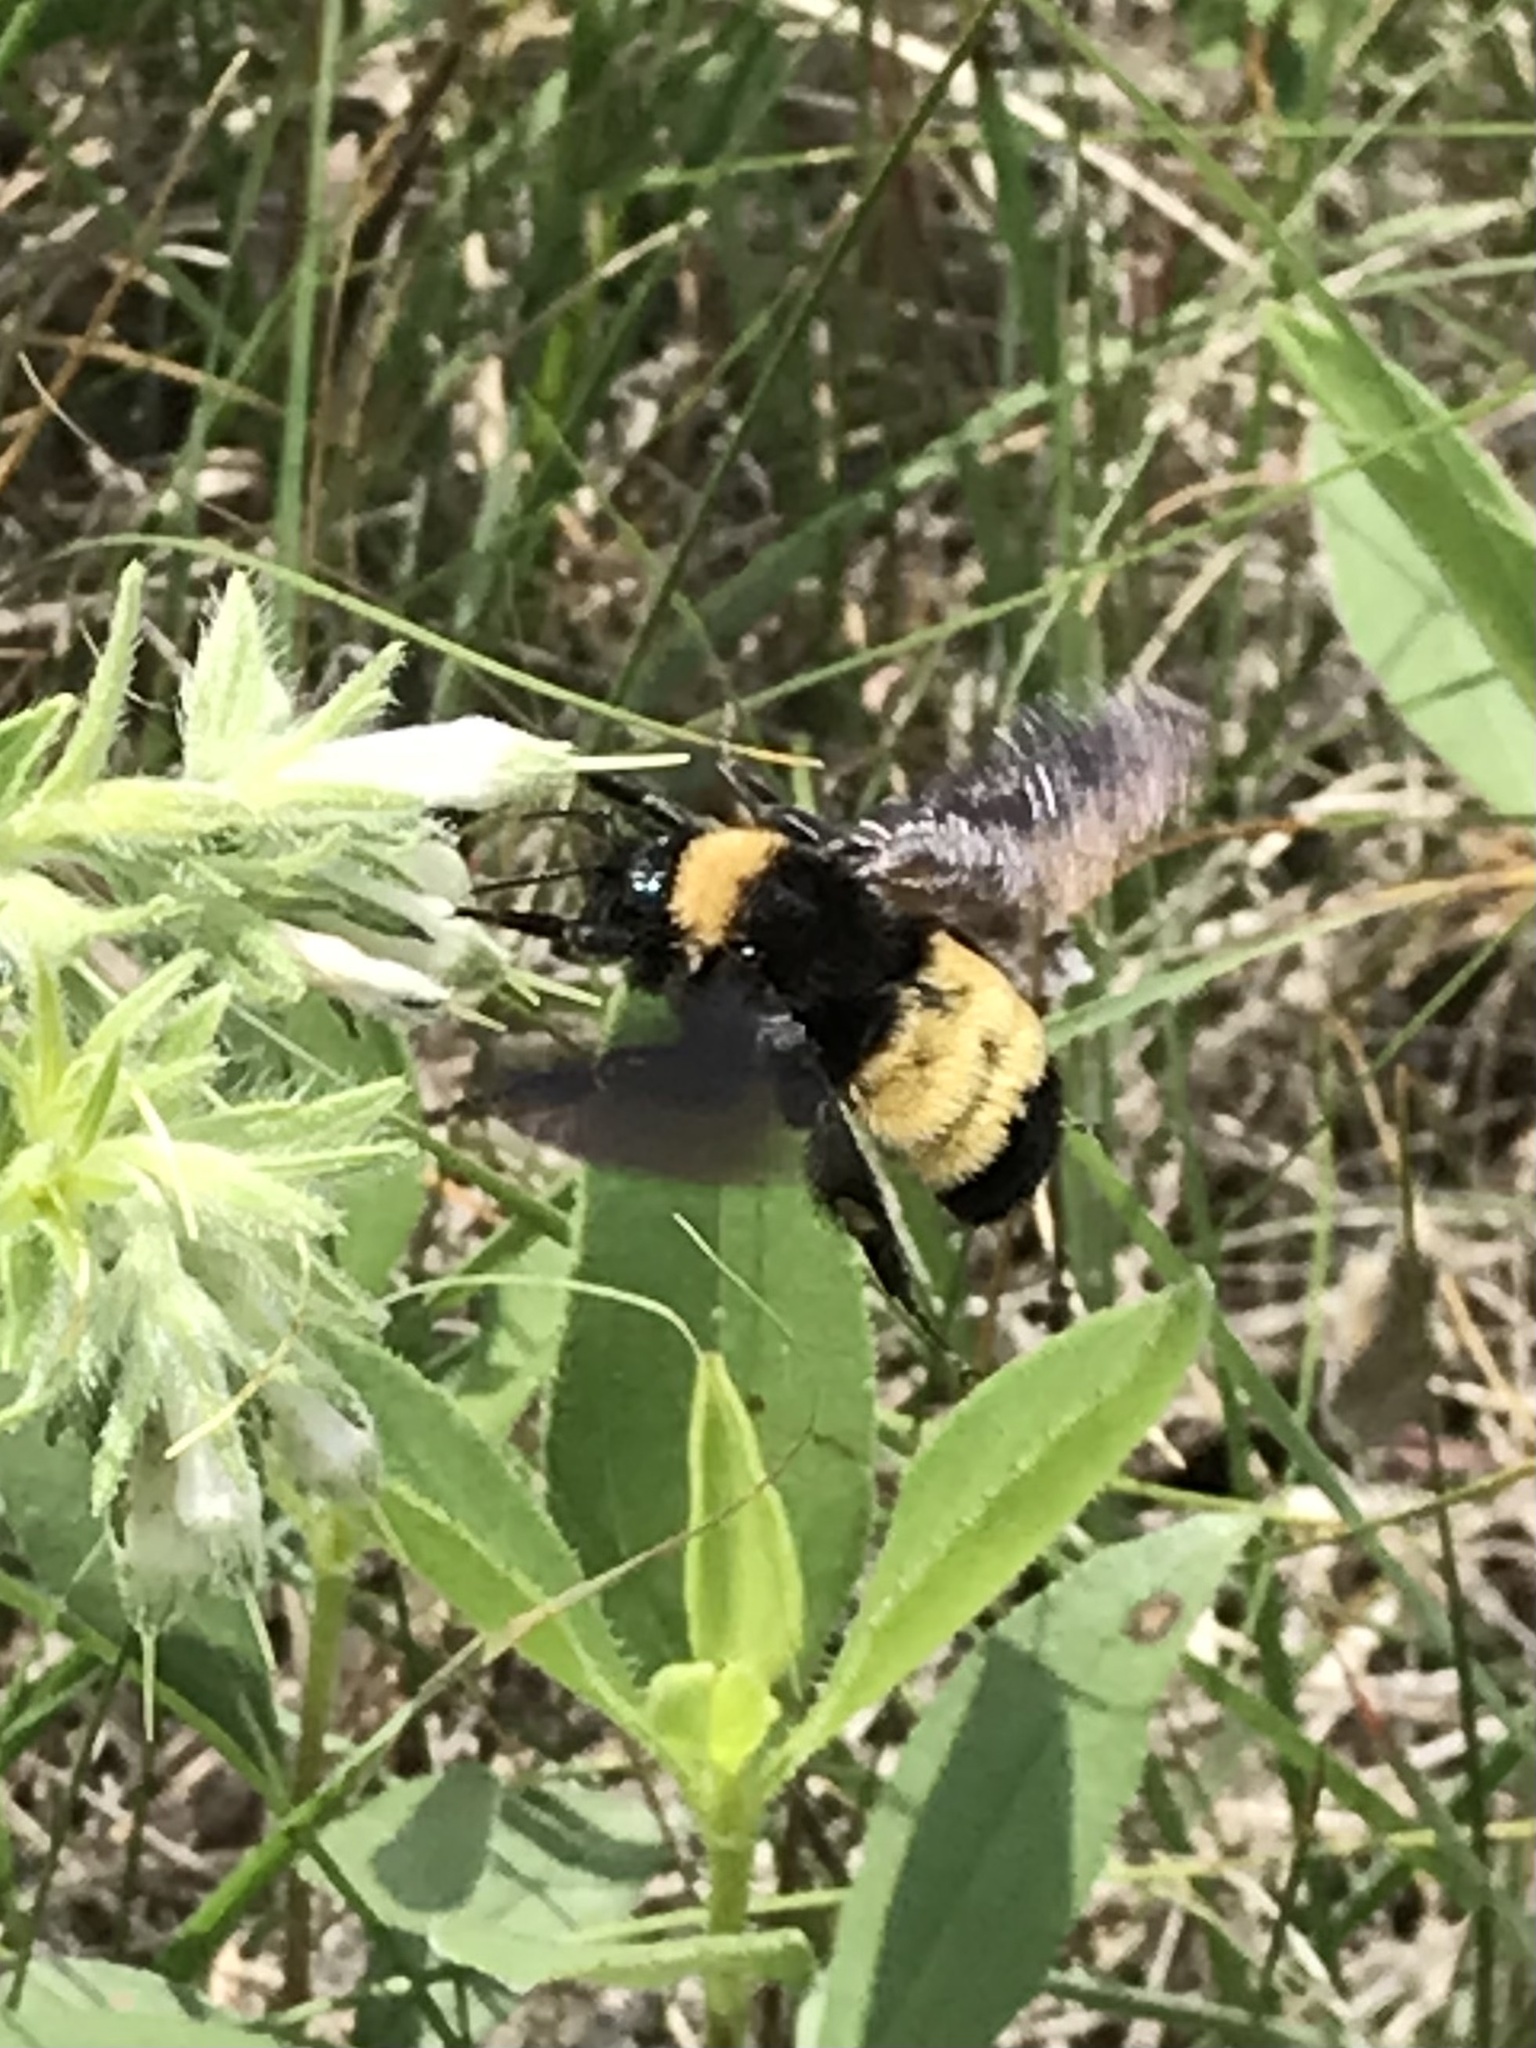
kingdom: Animalia
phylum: Arthropoda
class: Insecta
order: Hymenoptera
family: Apidae
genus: Bombus
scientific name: Bombus pensylvanicus
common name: Bumble bee
